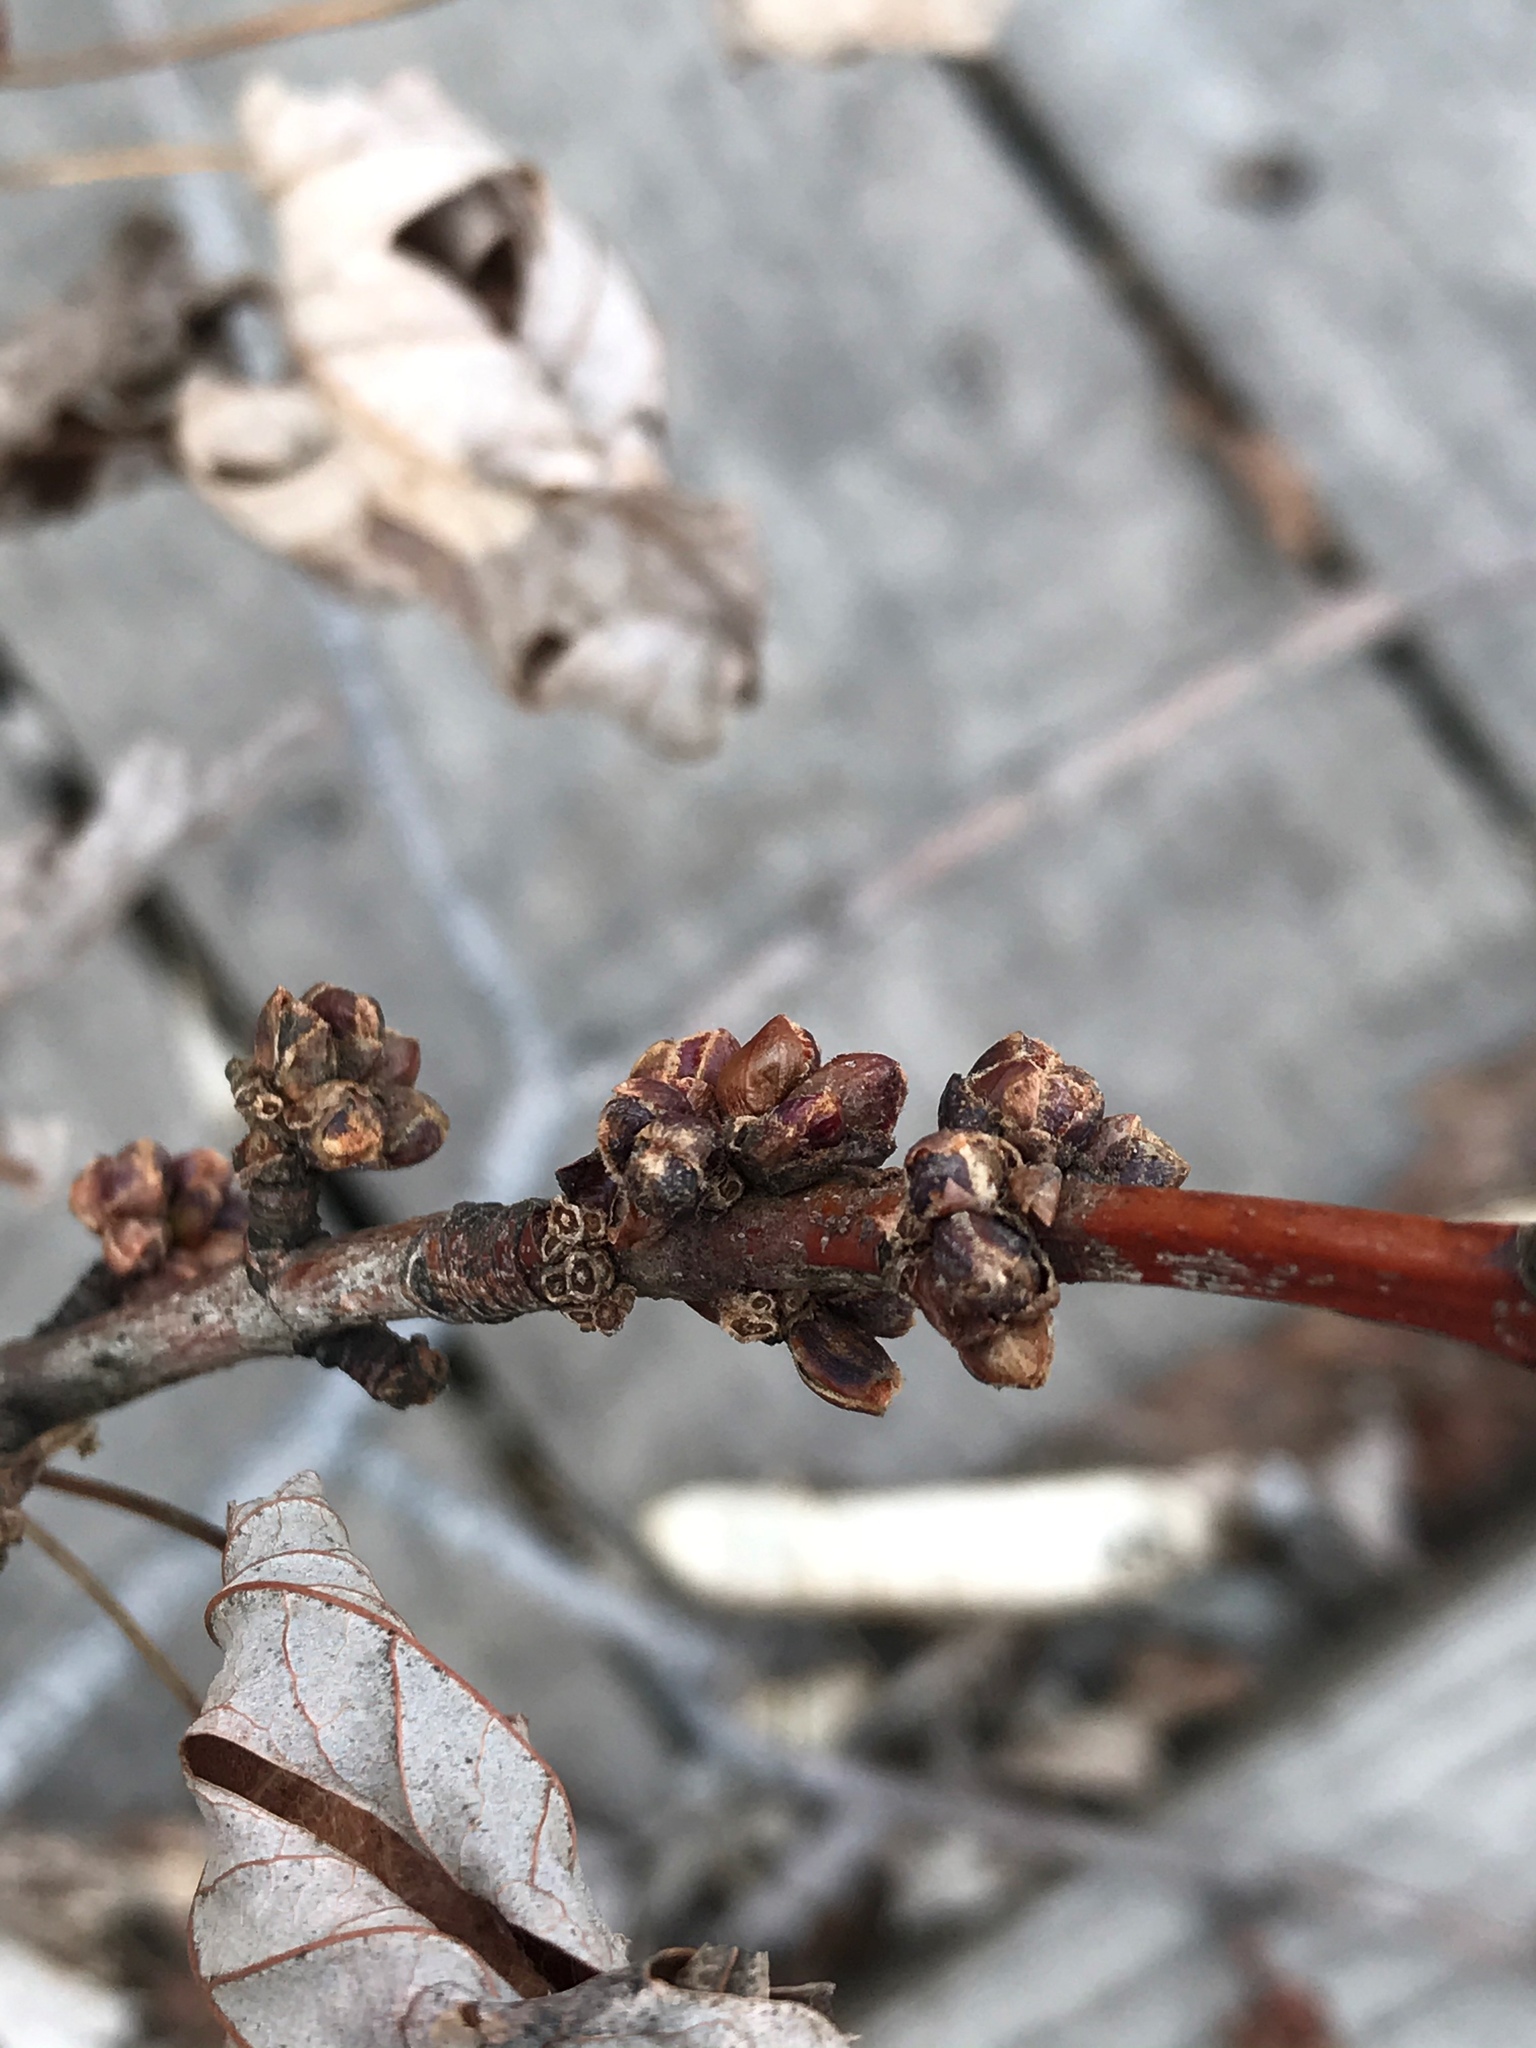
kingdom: Plantae
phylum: Tracheophyta
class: Magnoliopsida
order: Sapindales
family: Sapindaceae
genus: Acer
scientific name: Acer saccharinum
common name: Silver maple
